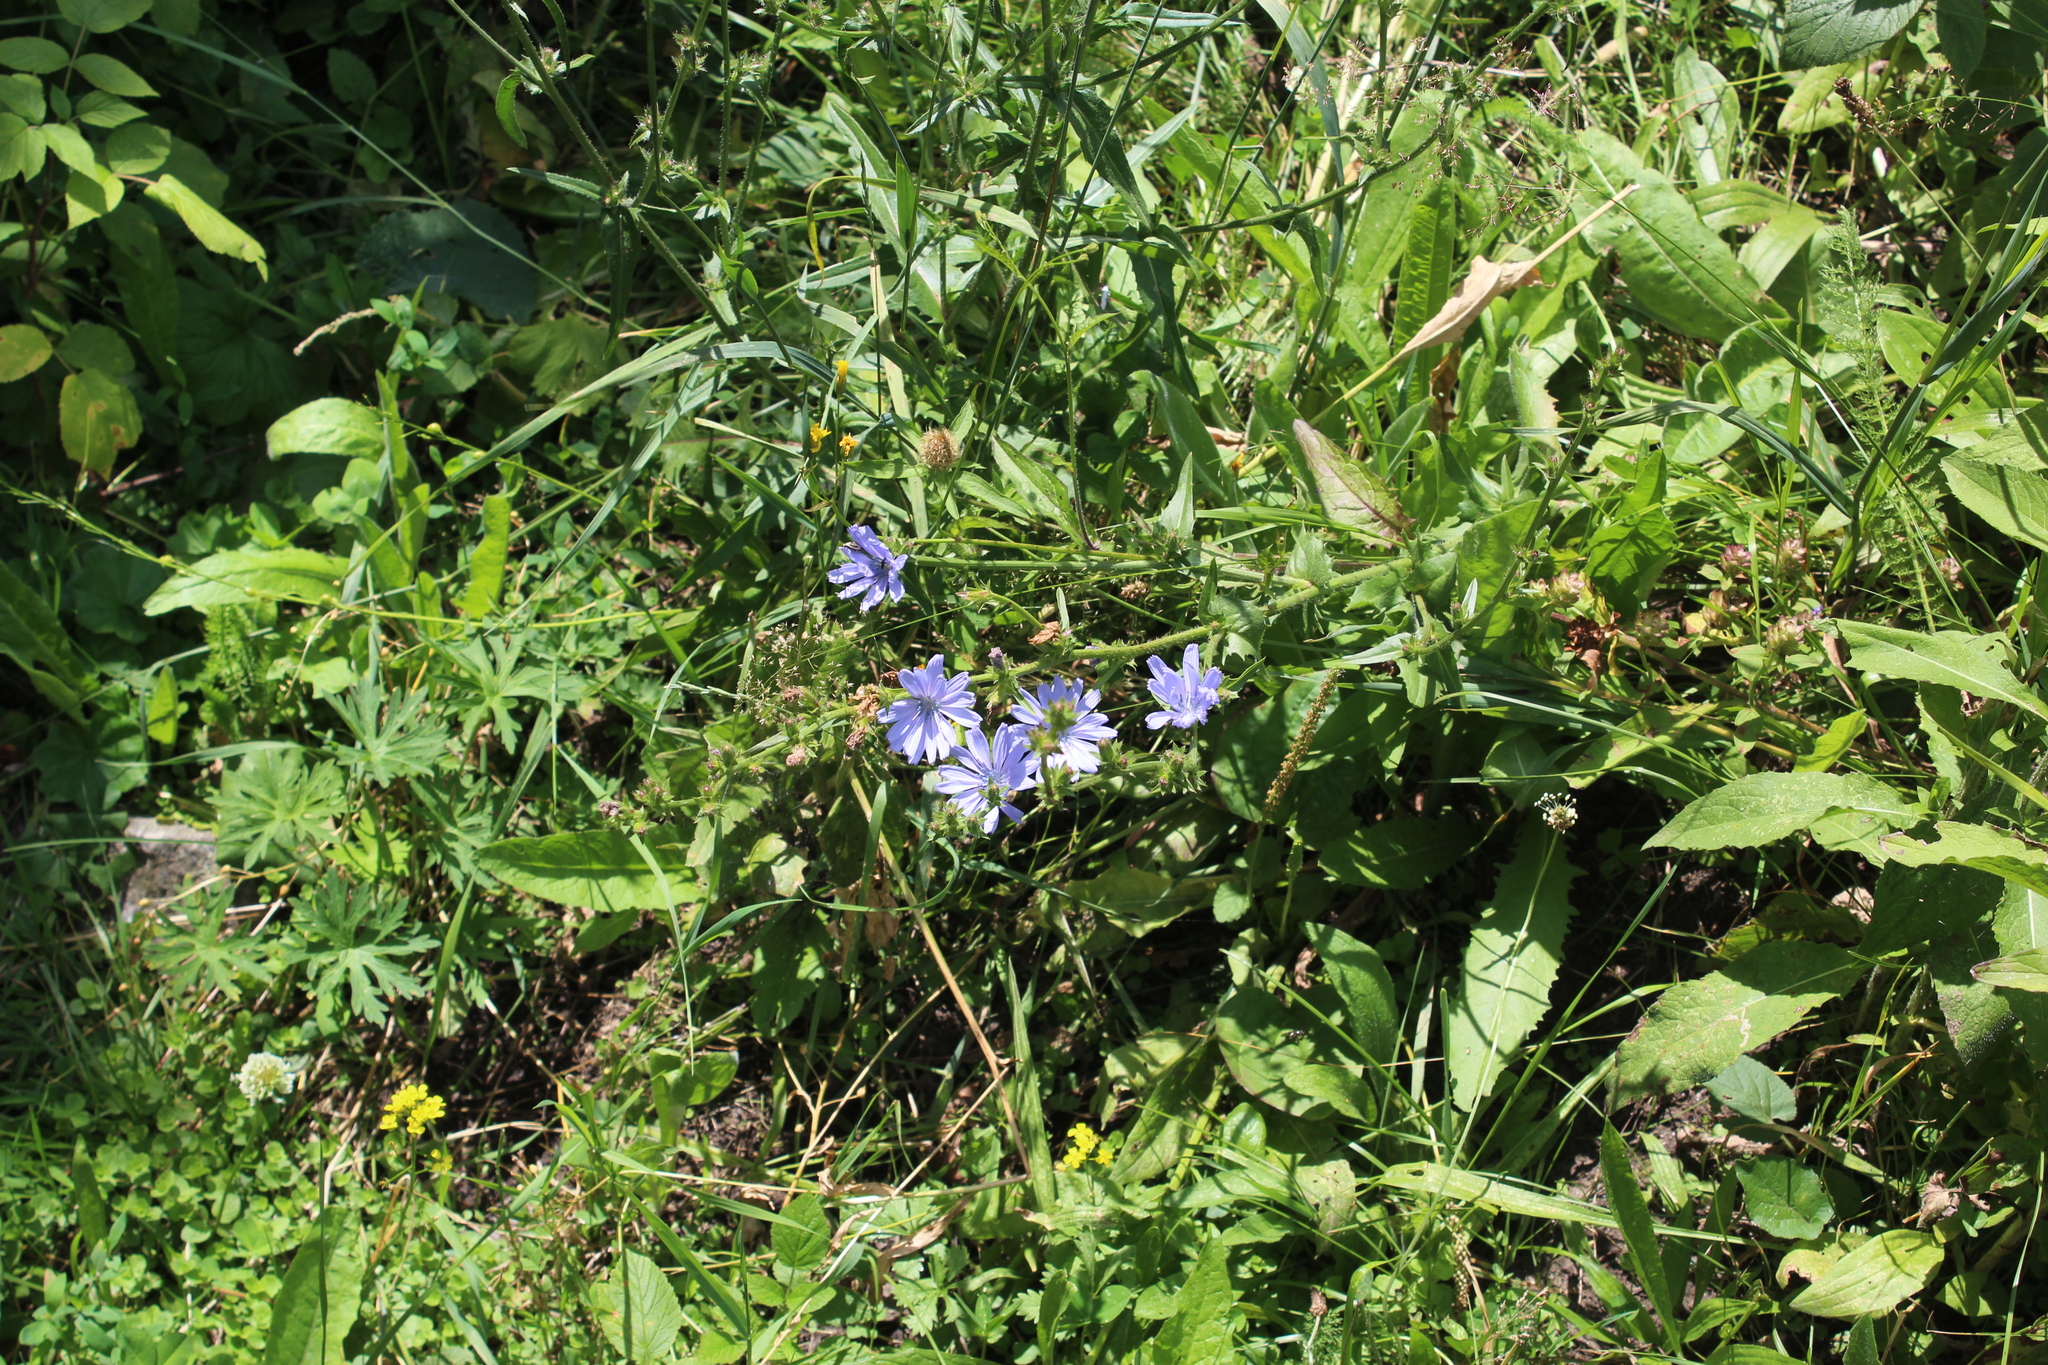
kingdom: Plantae
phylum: Tracheophyta
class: Magnoliopsida
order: Asterales
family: Asteraceae
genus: Cichorium
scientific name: Cichorium intybus
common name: Chicory
